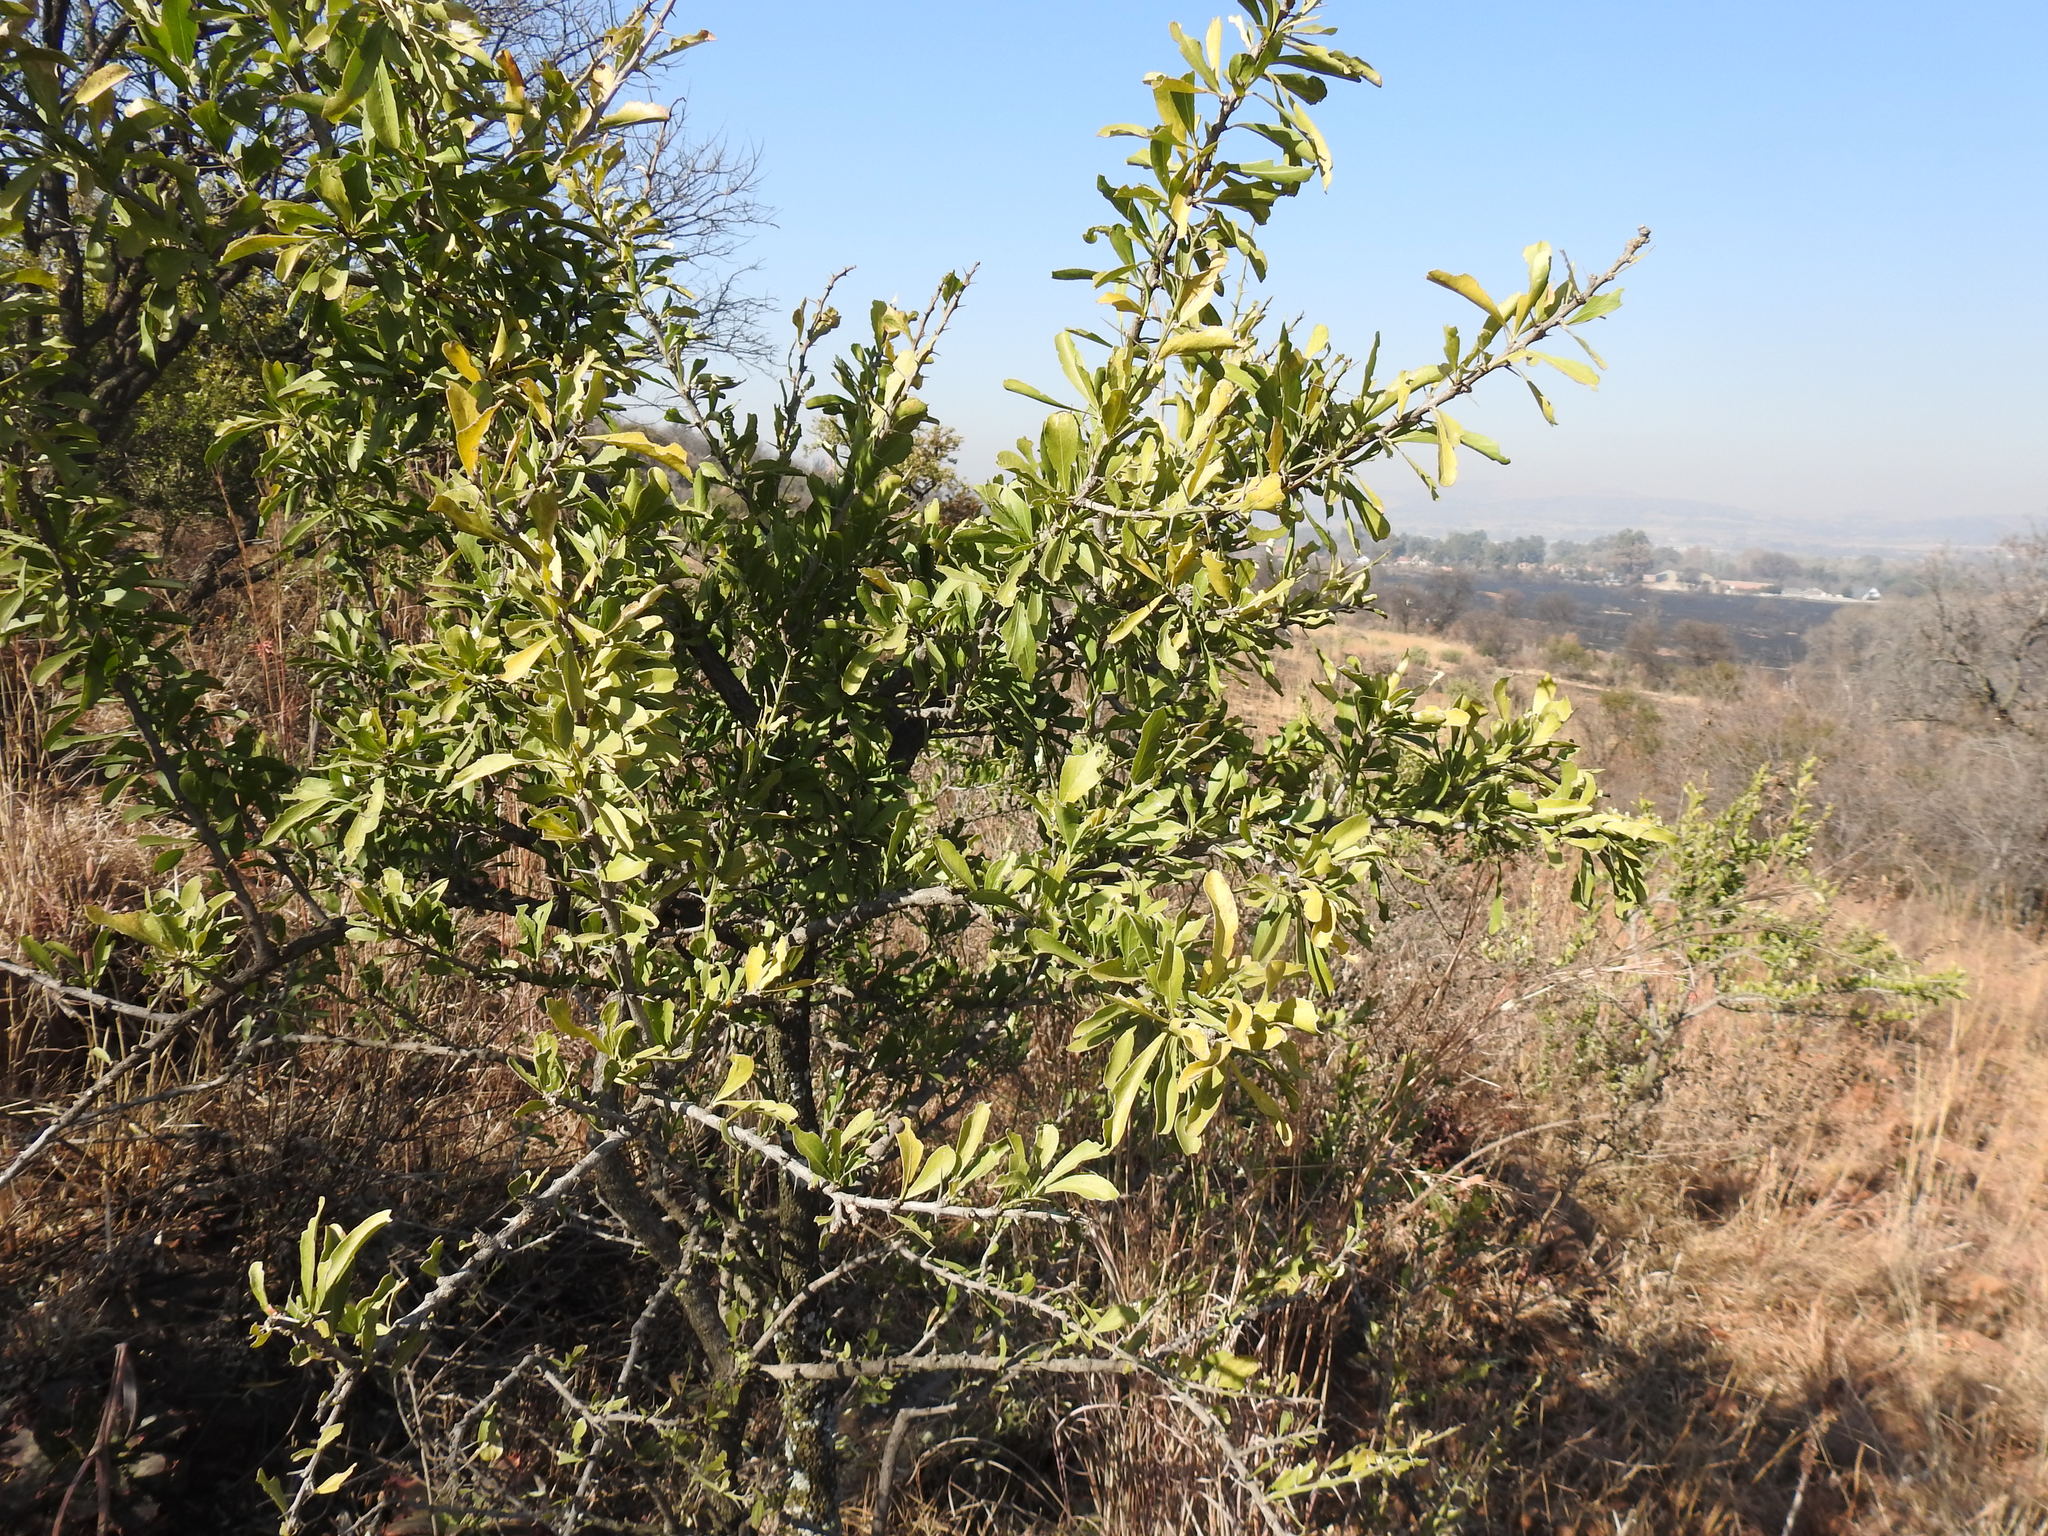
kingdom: Plantae
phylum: Tracheophyta
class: Magnoliopsida
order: Celastrales
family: Celastraceae
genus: Gymnosporia
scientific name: Gymnosporia buxifolia
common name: Common spike-thorn
